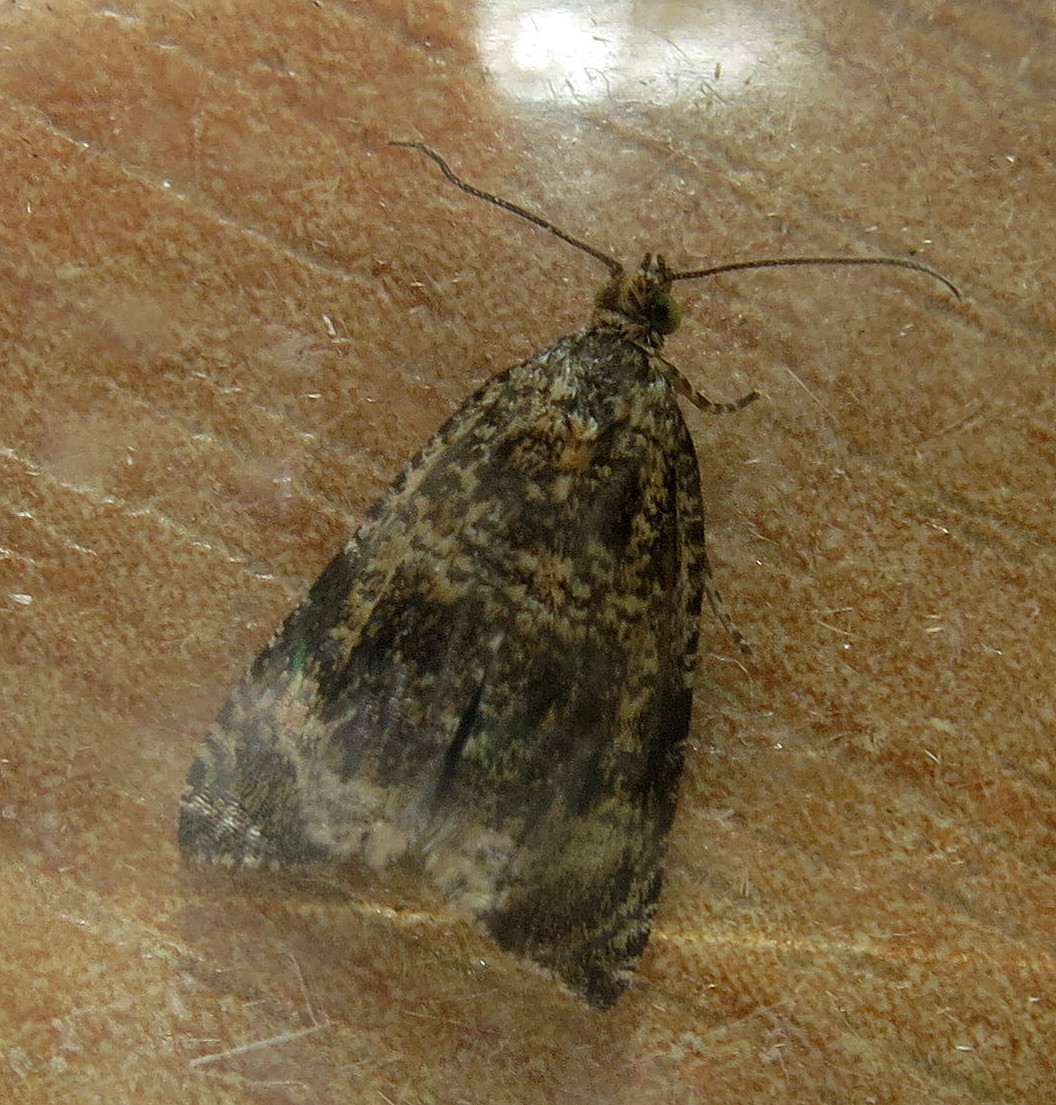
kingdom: Animalia
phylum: Arthropoda
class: Insecta
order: Lepidoptera
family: Tortricidae
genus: Syricoris
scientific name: Syricoris lacunana
